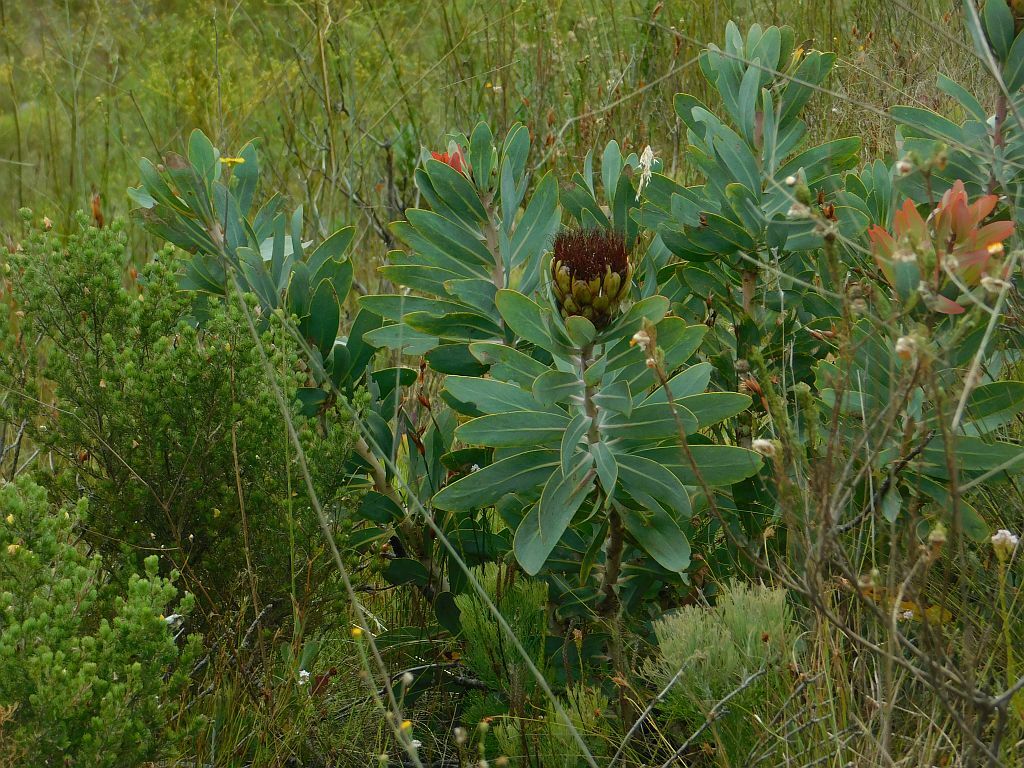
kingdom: Plantae
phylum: Tracheophyta
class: Magnoliopsida
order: Proteales
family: Proteaceae
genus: Protea
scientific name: Protea nitida
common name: Tree protea
